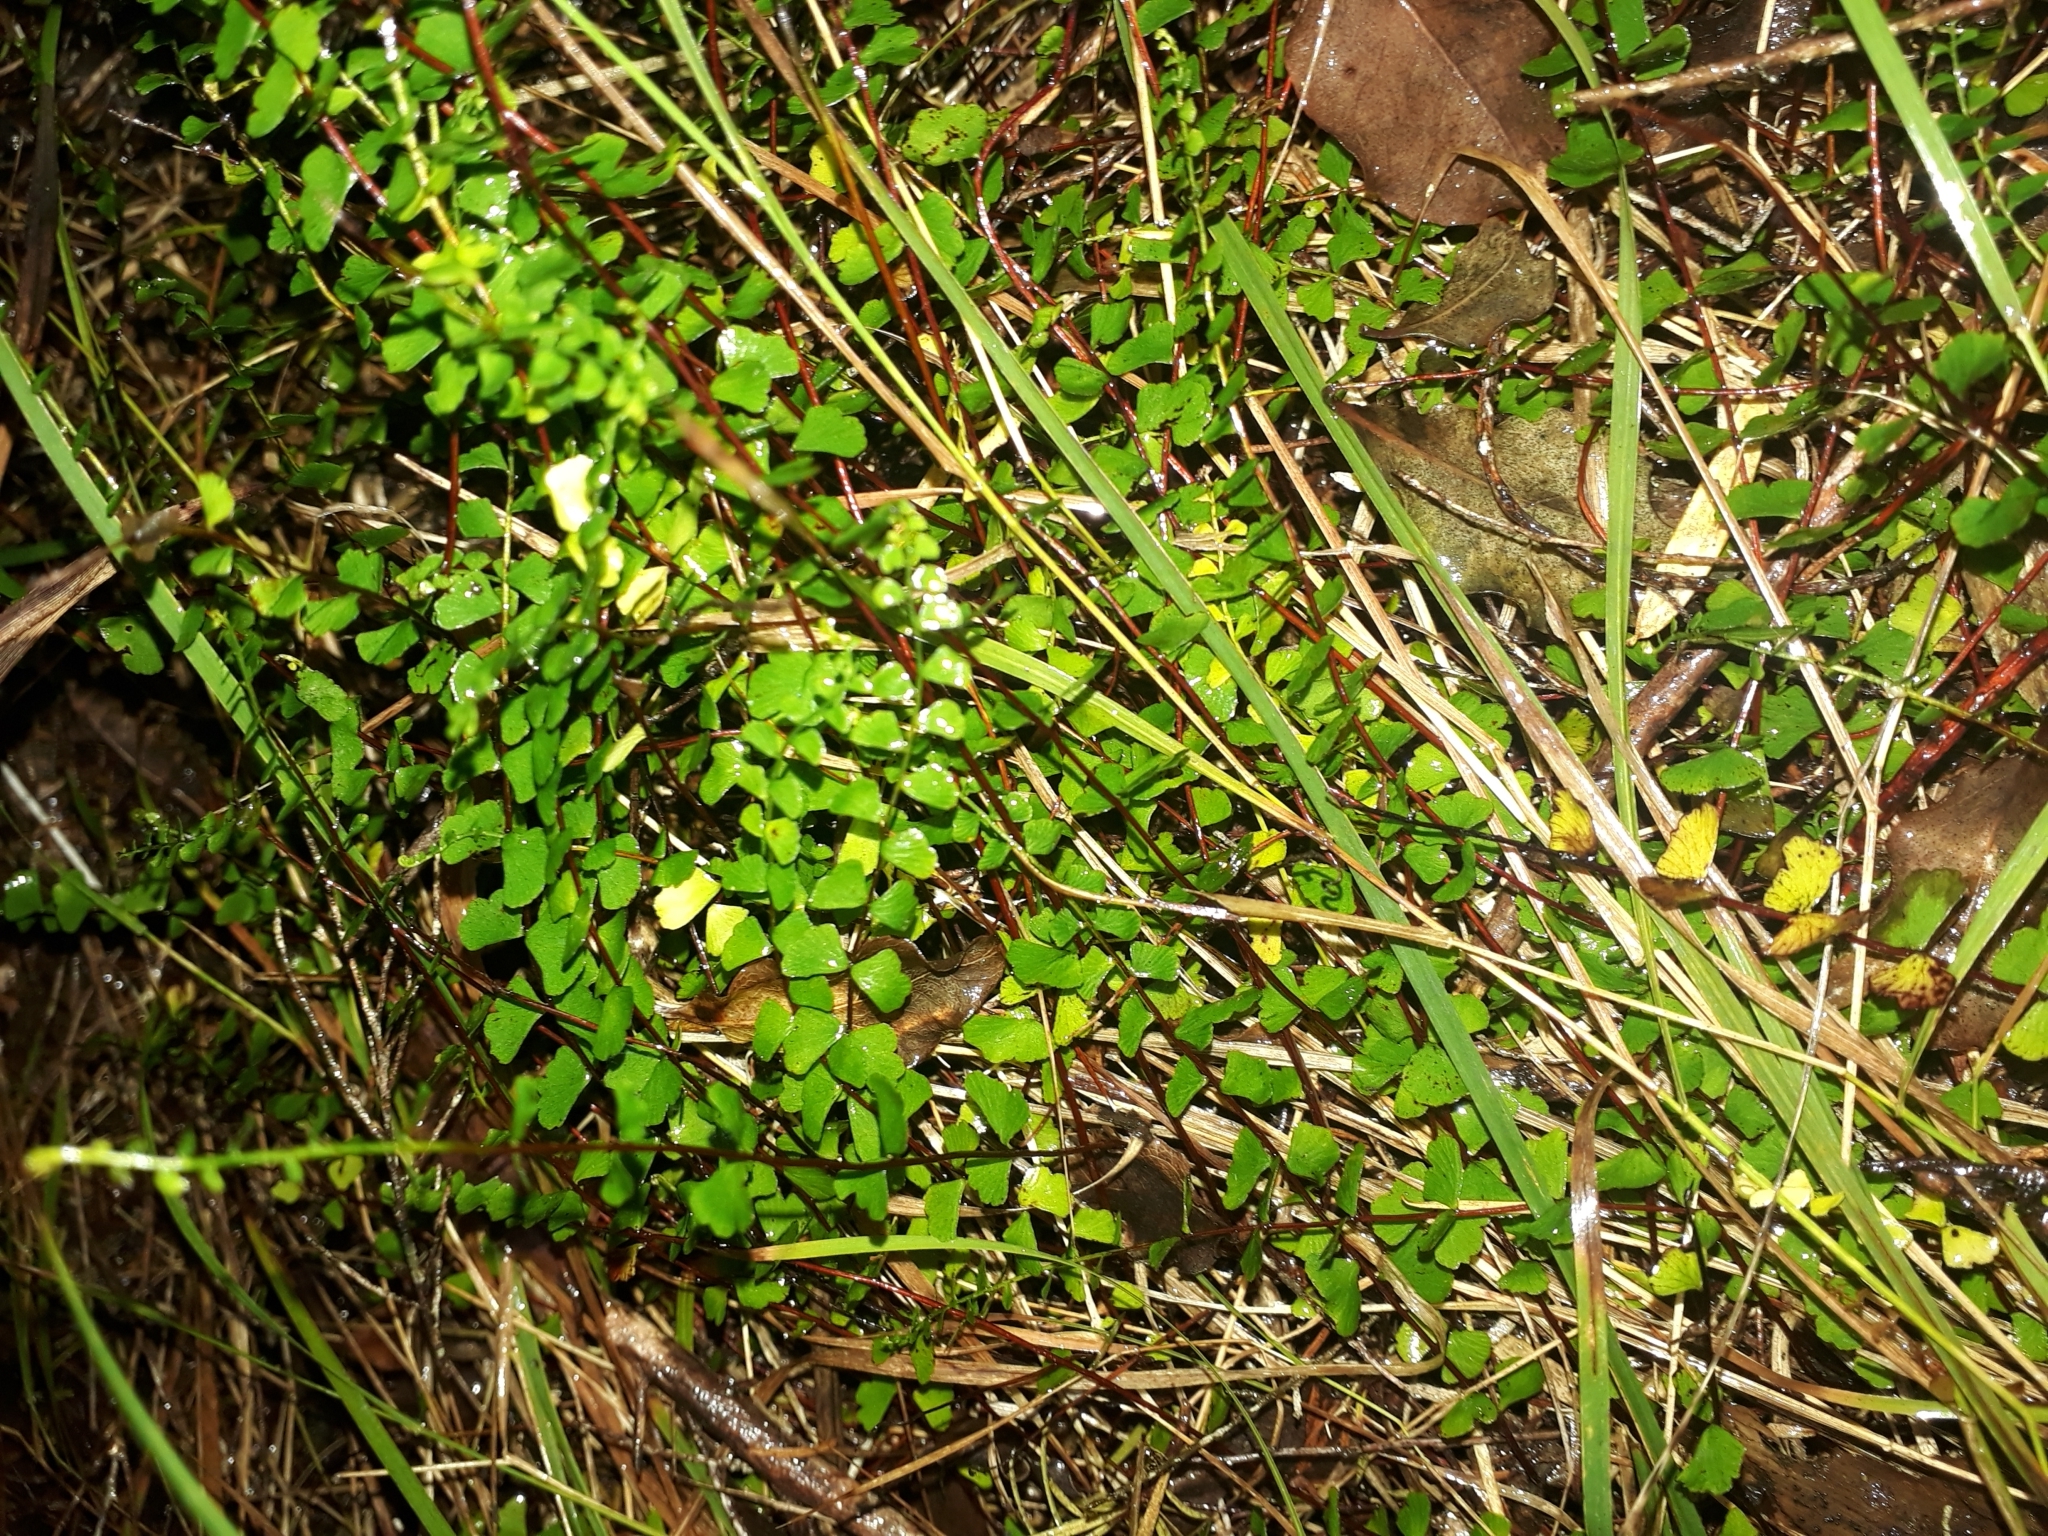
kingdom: Plantae
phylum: Tracheophyta
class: Polypodiopsida
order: Polypodiales
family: Lindsaeaceae
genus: Lindsaea
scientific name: Lindsaea linearis
